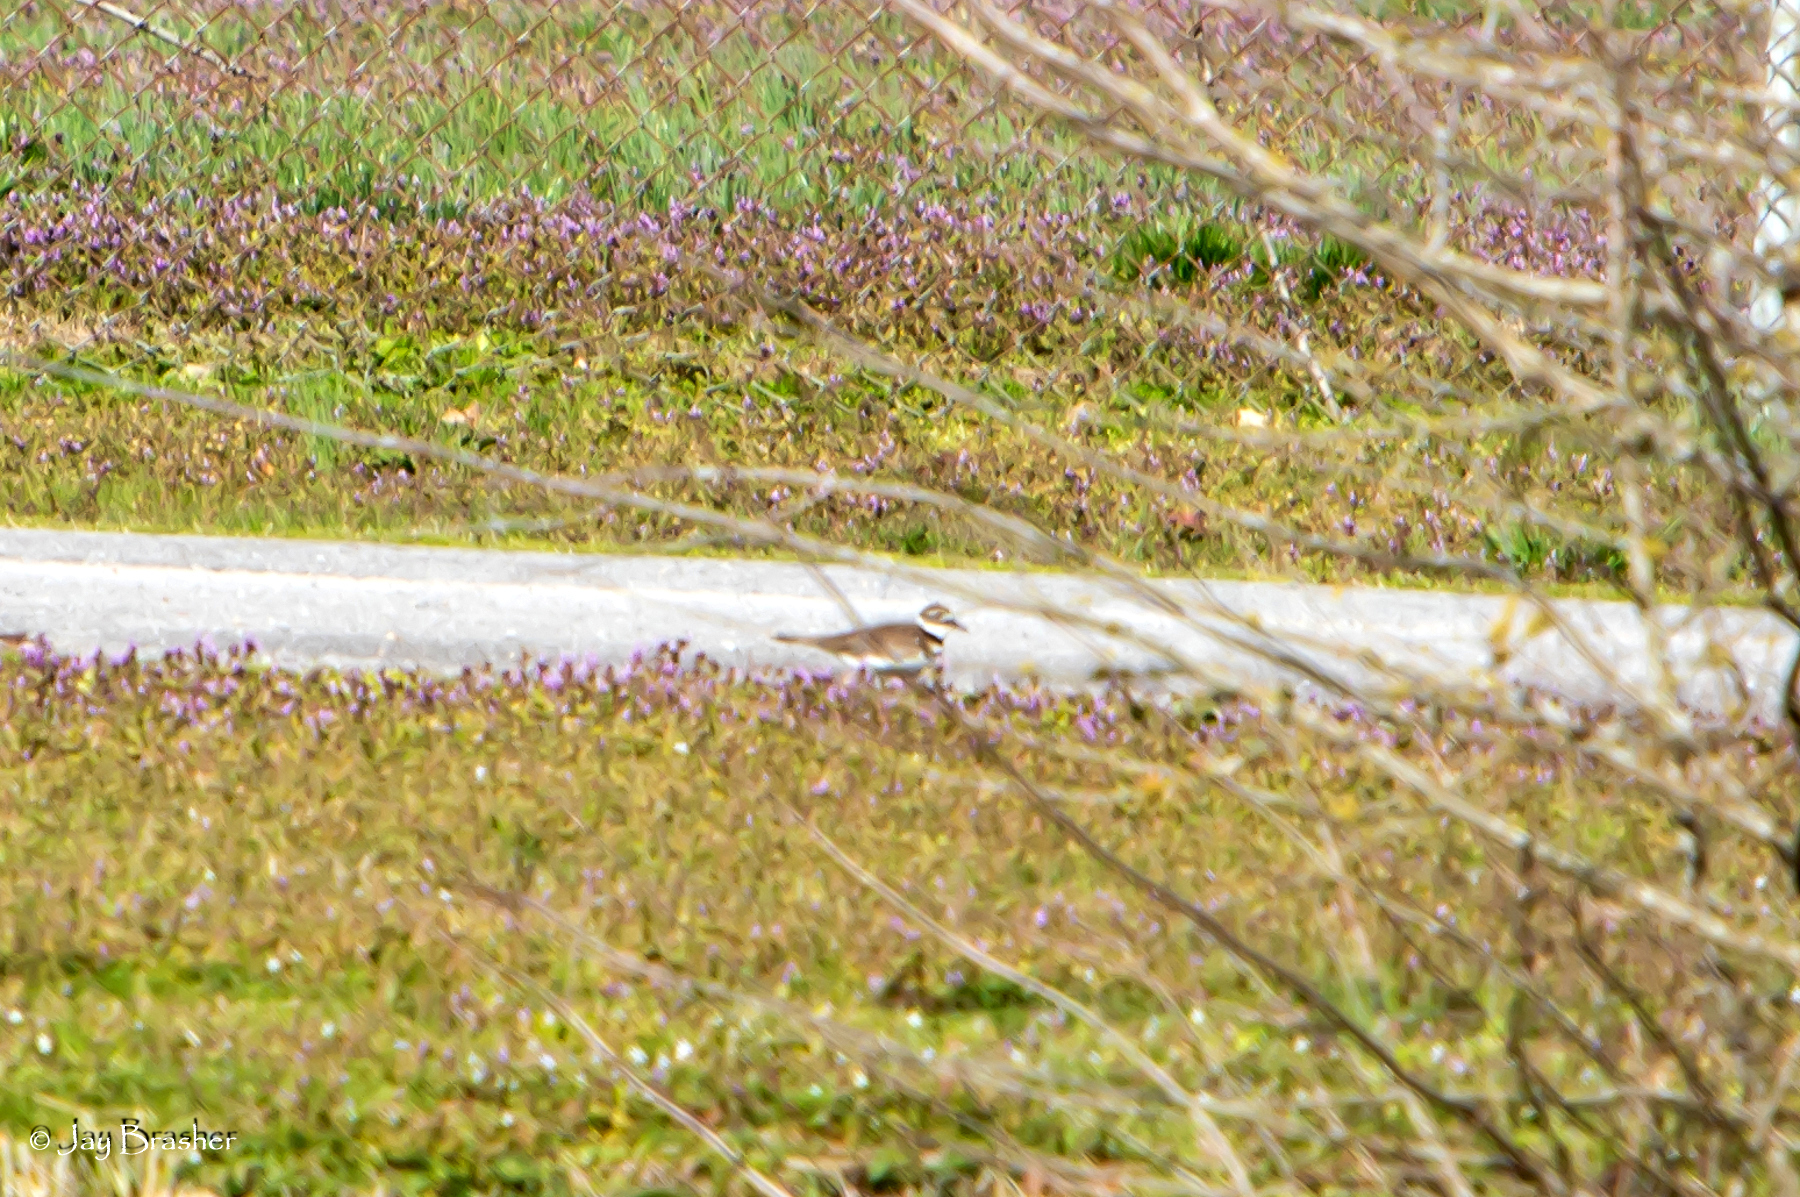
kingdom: Animalia
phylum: Chordata
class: Aves
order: Charadriiformes
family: Charadriidae
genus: Charadrius
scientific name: Charadrius vociferus
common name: Killdeer
